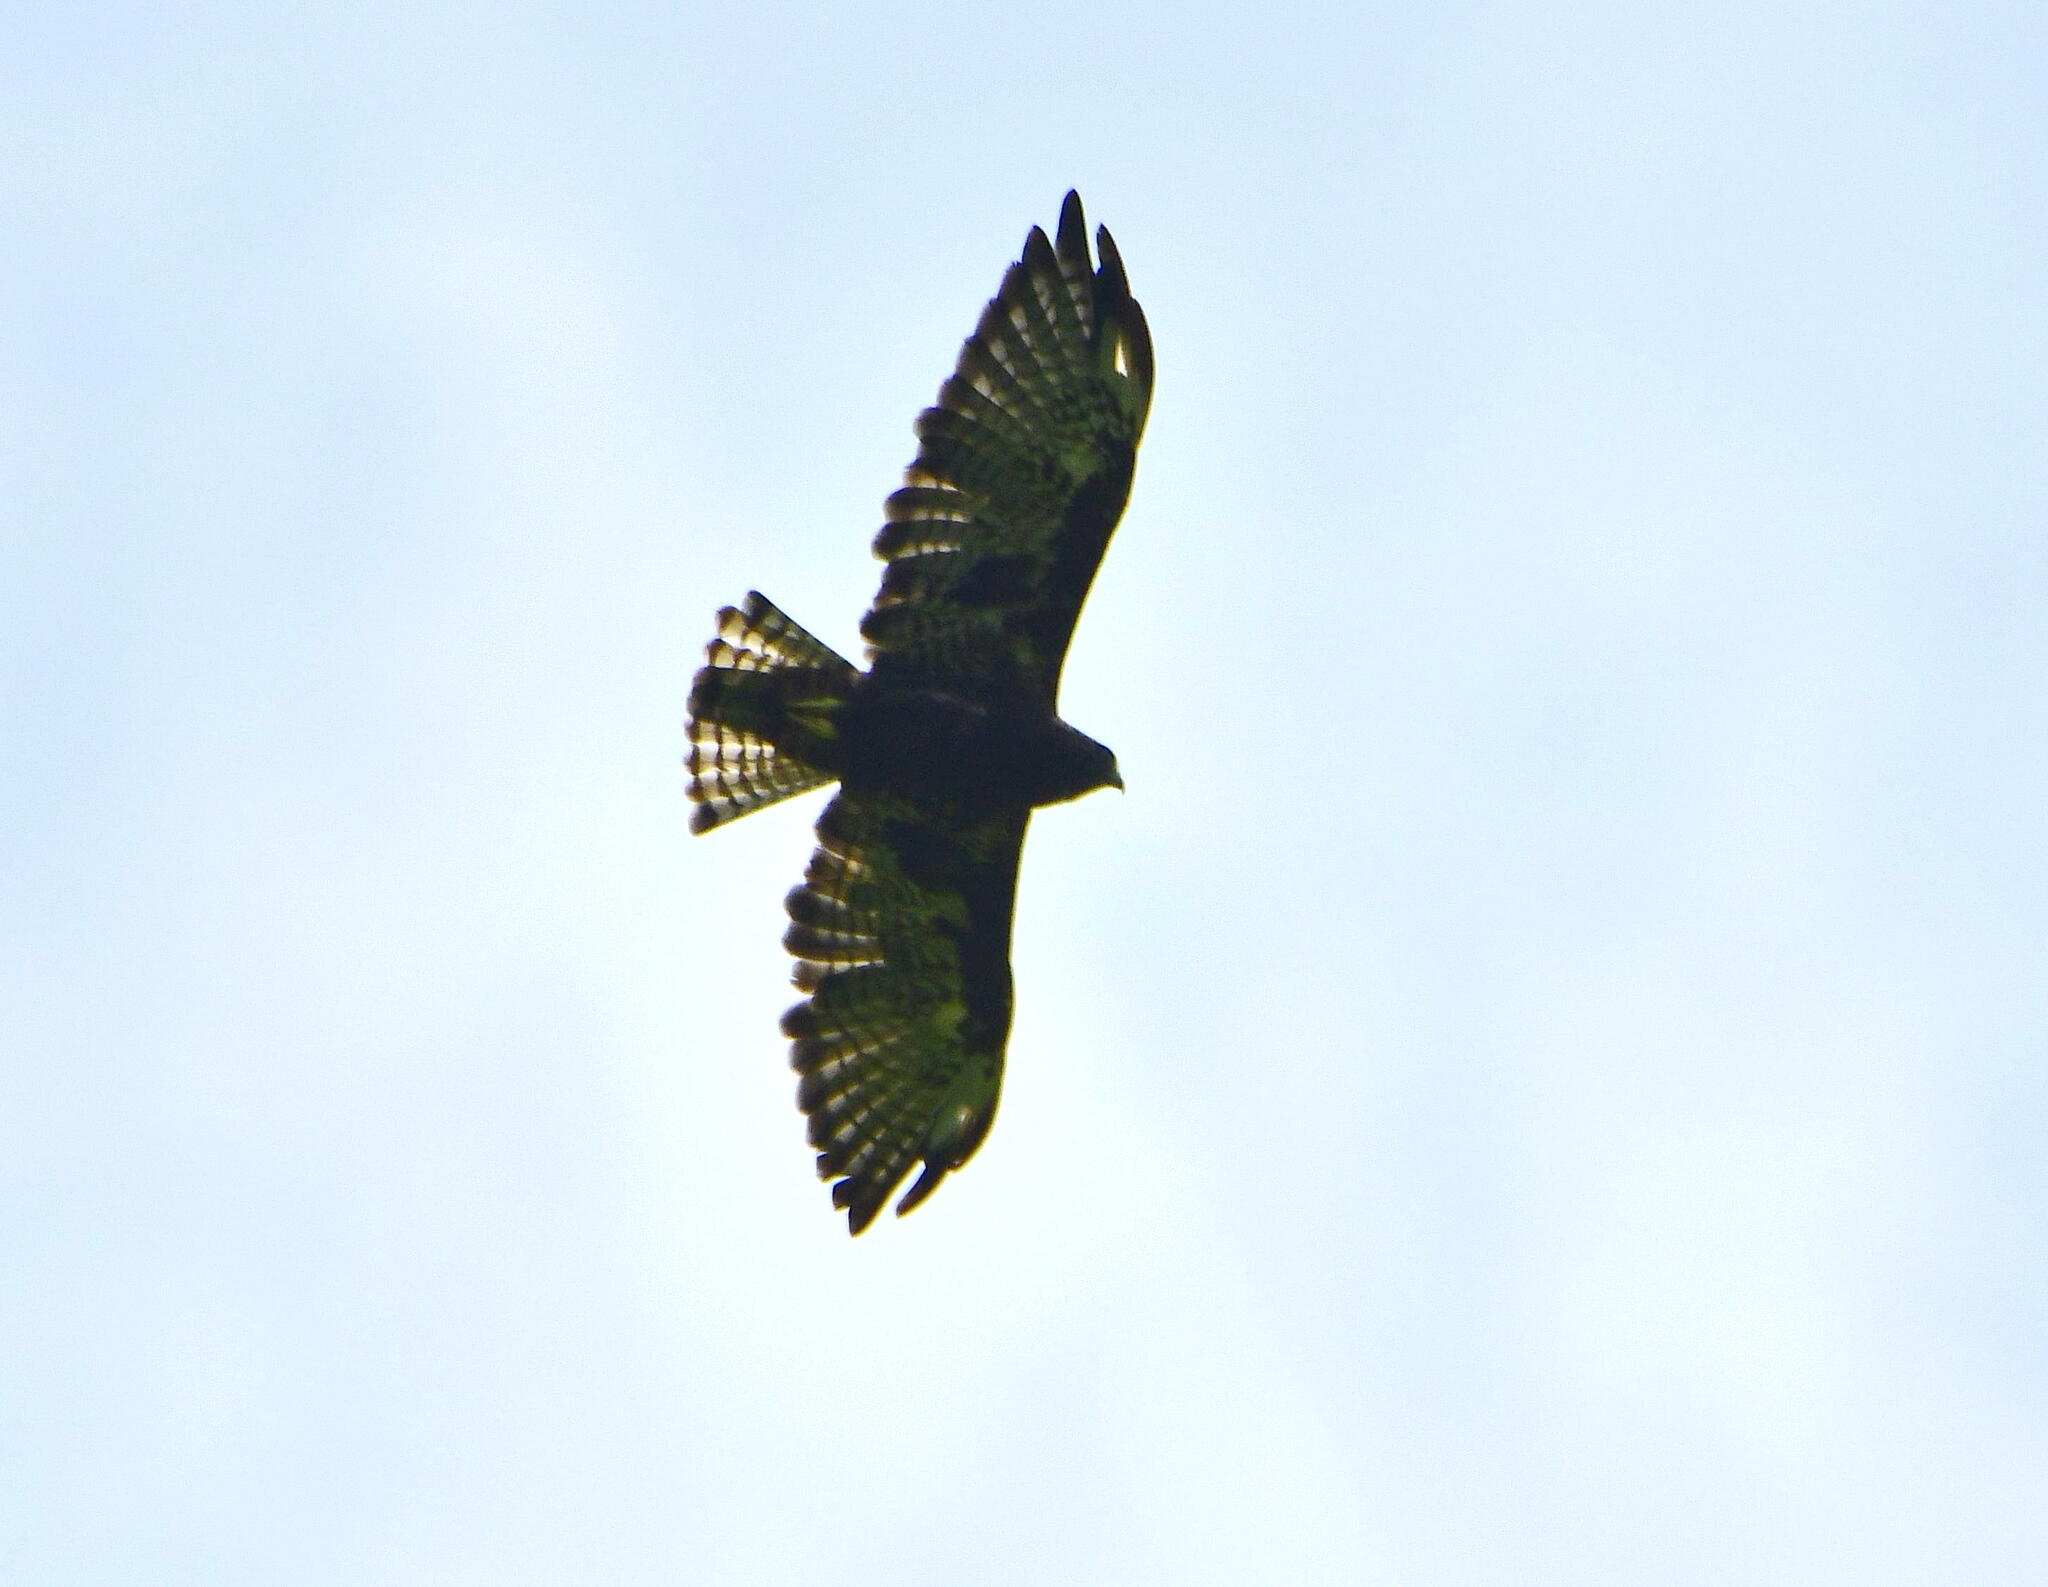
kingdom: Animalia
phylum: Chordata
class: Aves
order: Accipitriformes
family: Accipitridae
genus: Buteo
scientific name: Buteo brachyurus
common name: Short-tailed hawk
